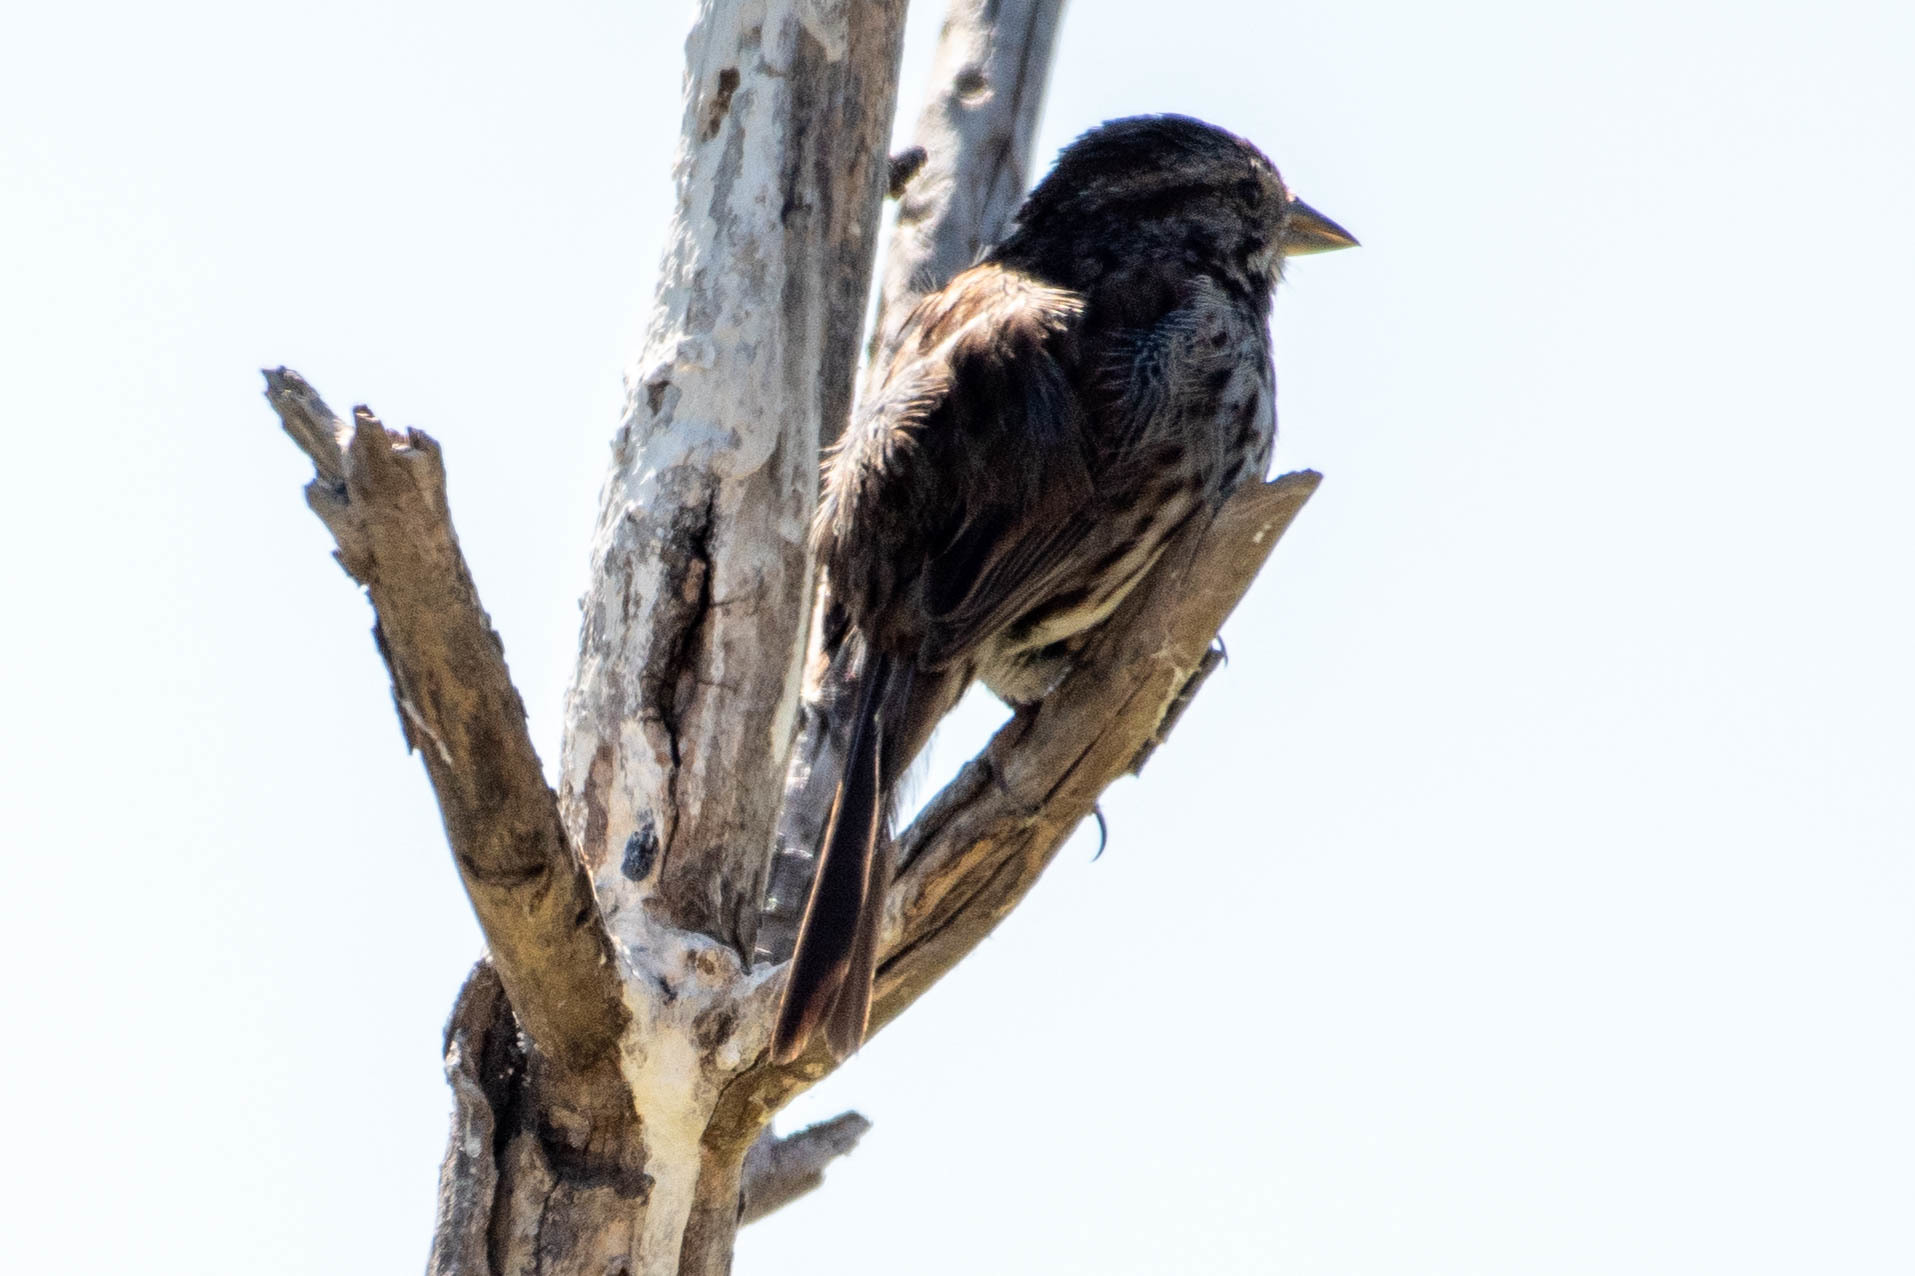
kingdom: Animalia
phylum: Chordata
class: Aves
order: Passeriformes
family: Passerellidae
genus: Melospiza
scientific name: Melospiza melodia
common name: Song sparrow
